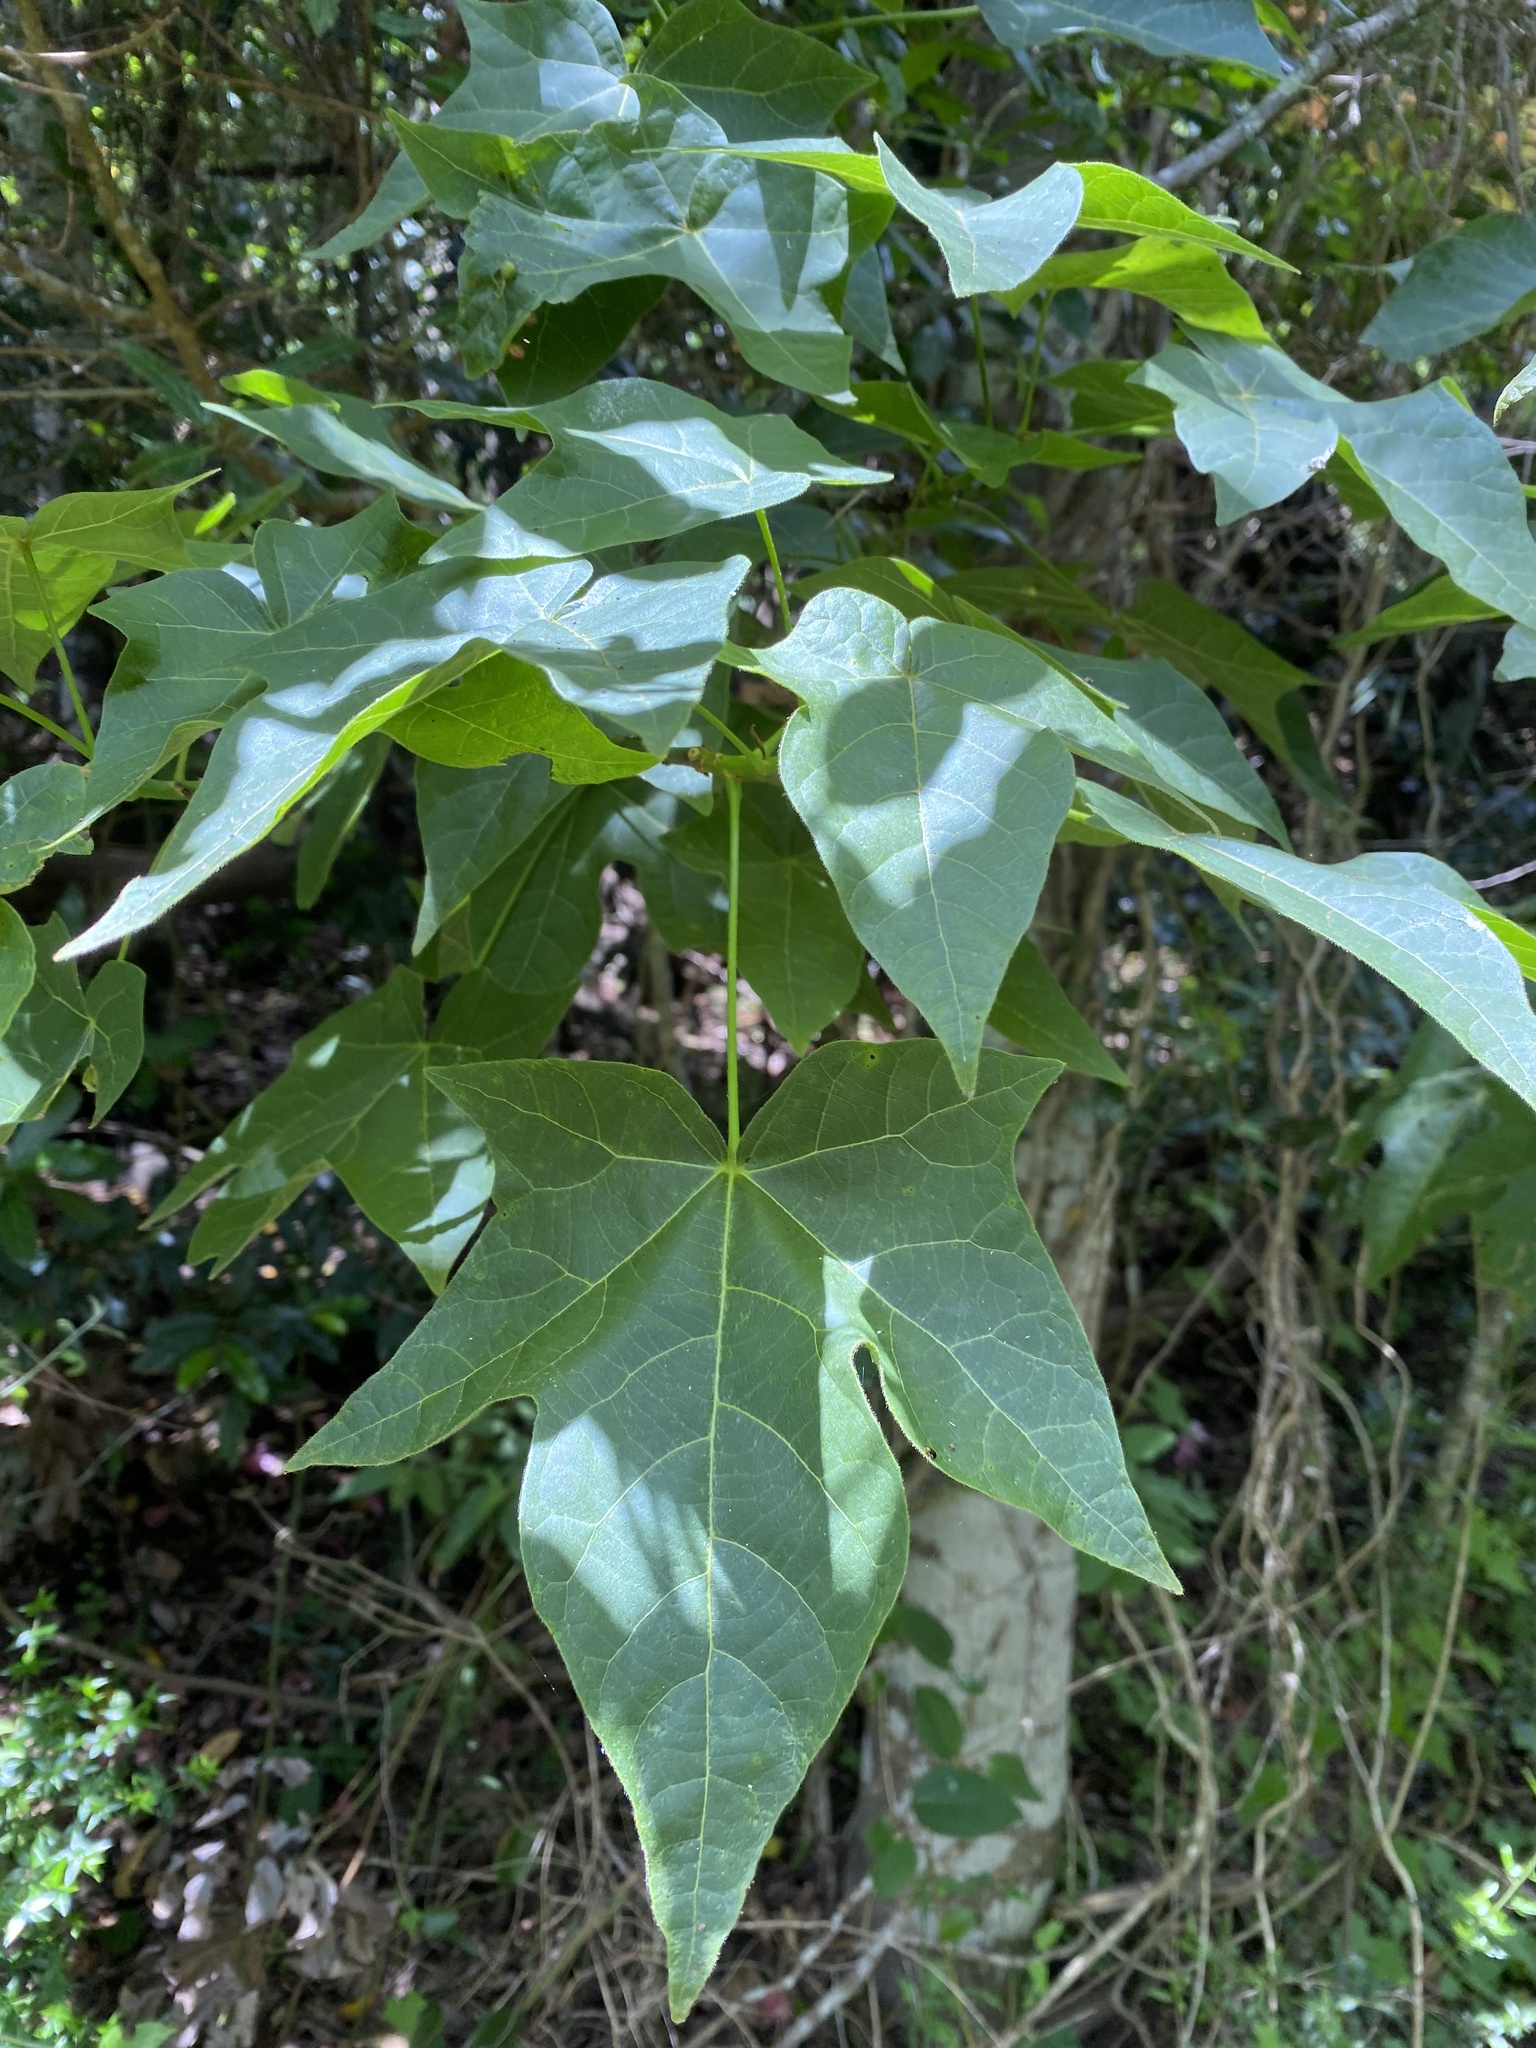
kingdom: Plantae
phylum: Tracheophyta
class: Magnoliopsida
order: Malvales
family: Malvaceae
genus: Brachychiton
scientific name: Brachychiton discolor
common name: Queensland lacebark
